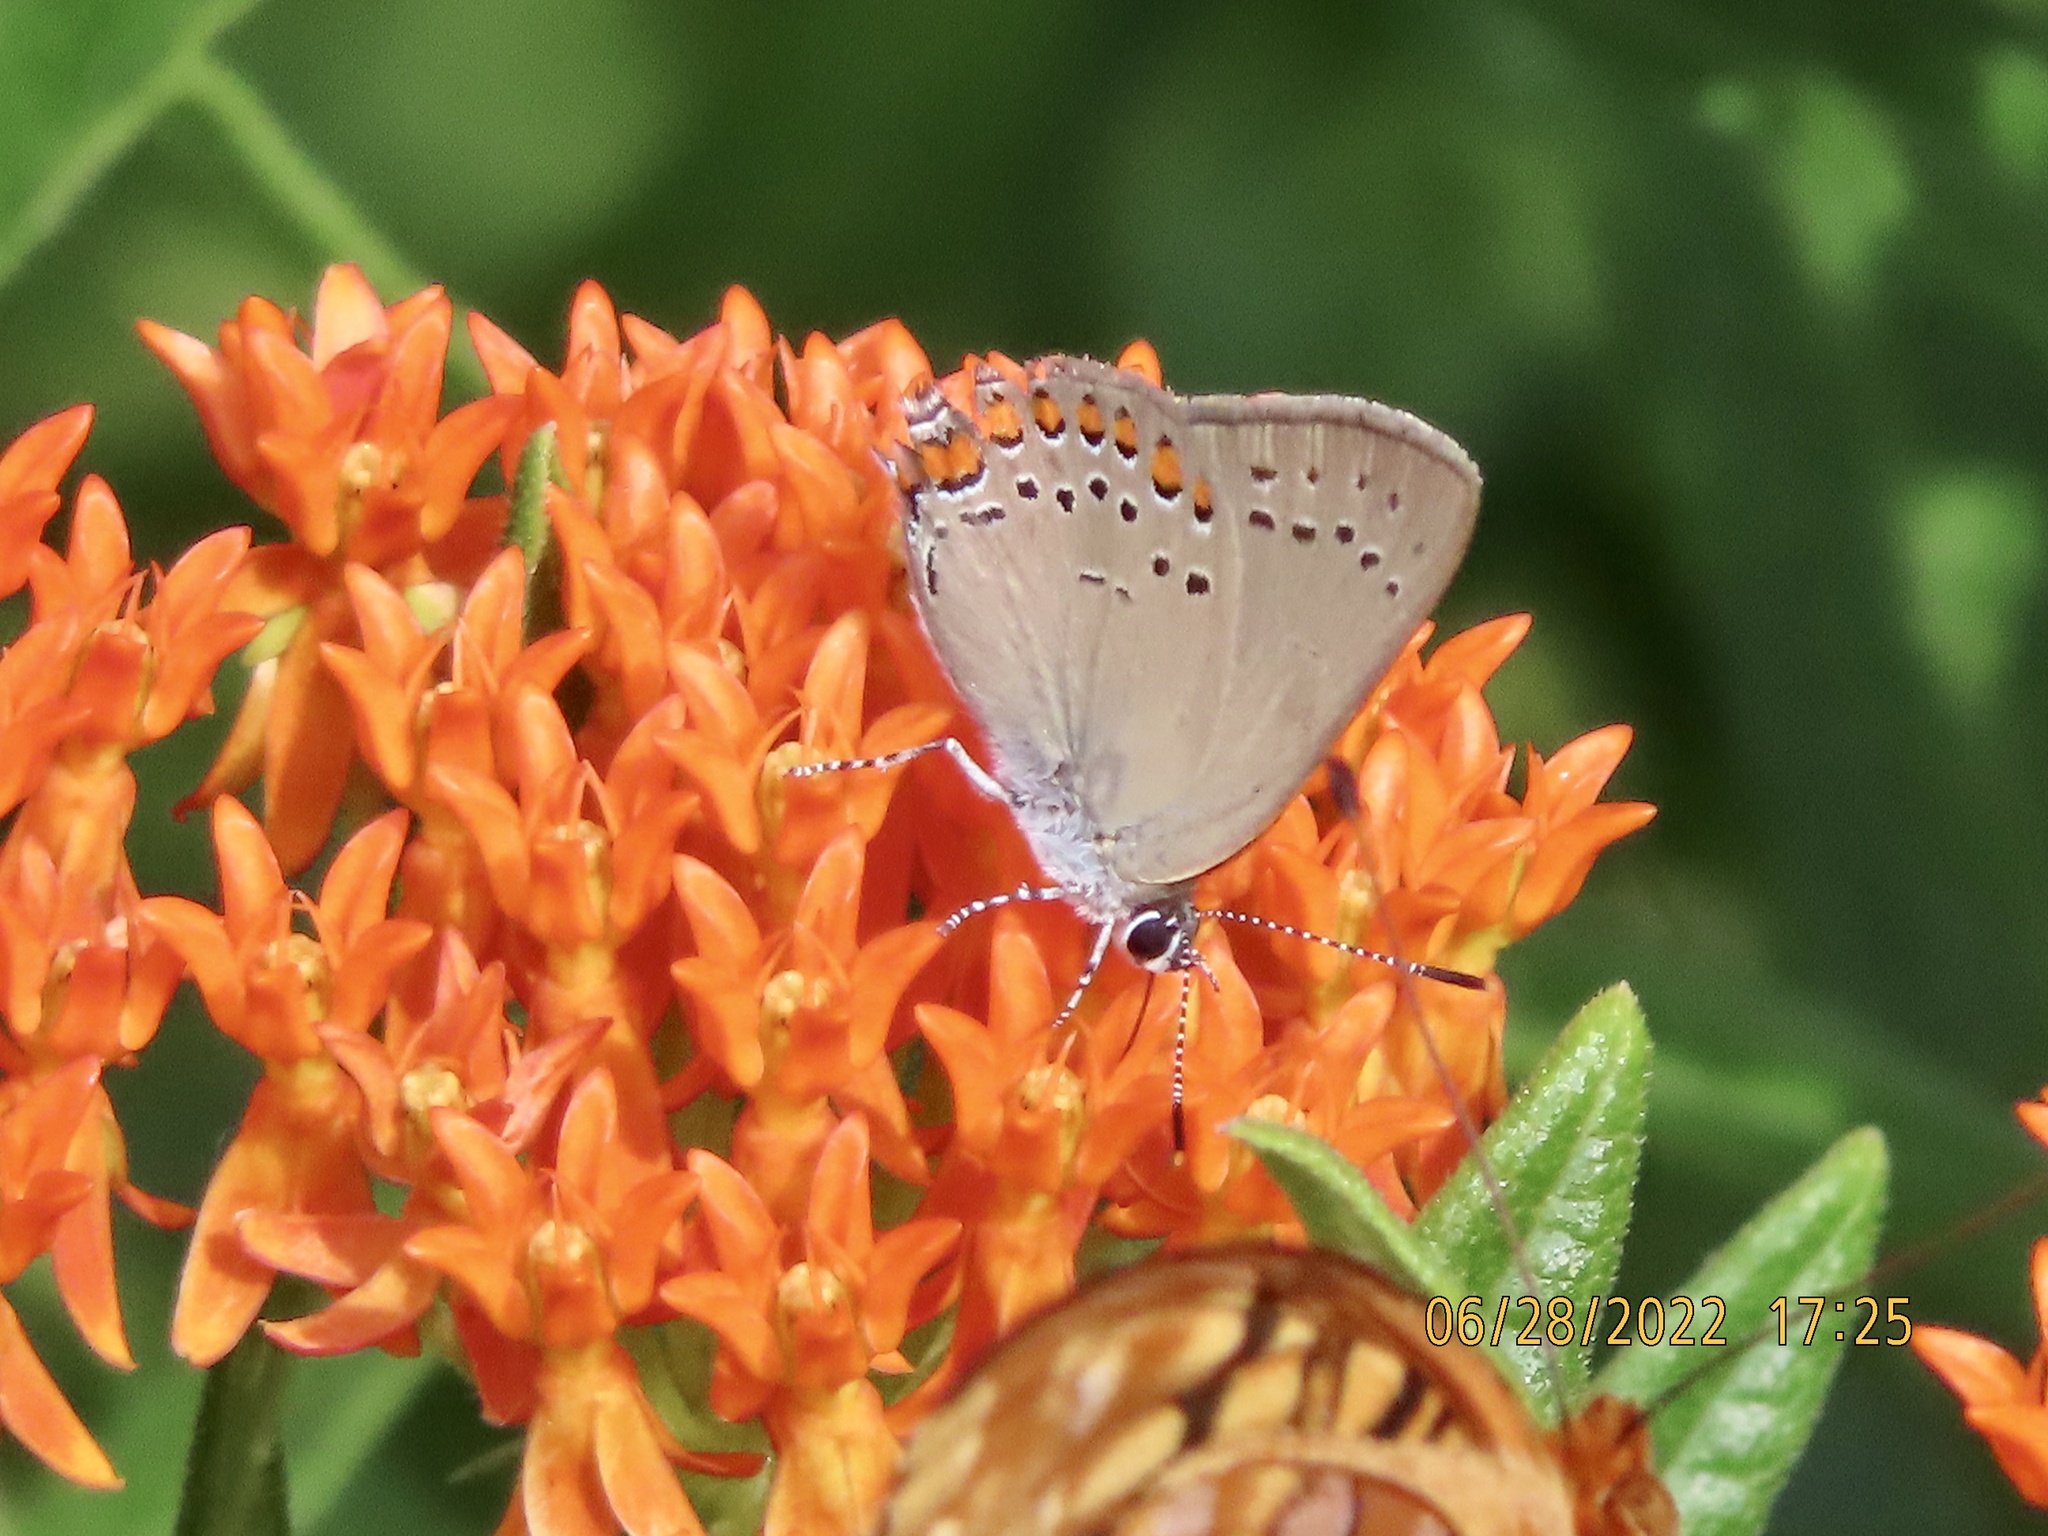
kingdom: Animalia
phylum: Arthropoda
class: Insecta
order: Lepidoptera
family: Lycaenidae
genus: Harkenclenus
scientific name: Harkenclenus titus
